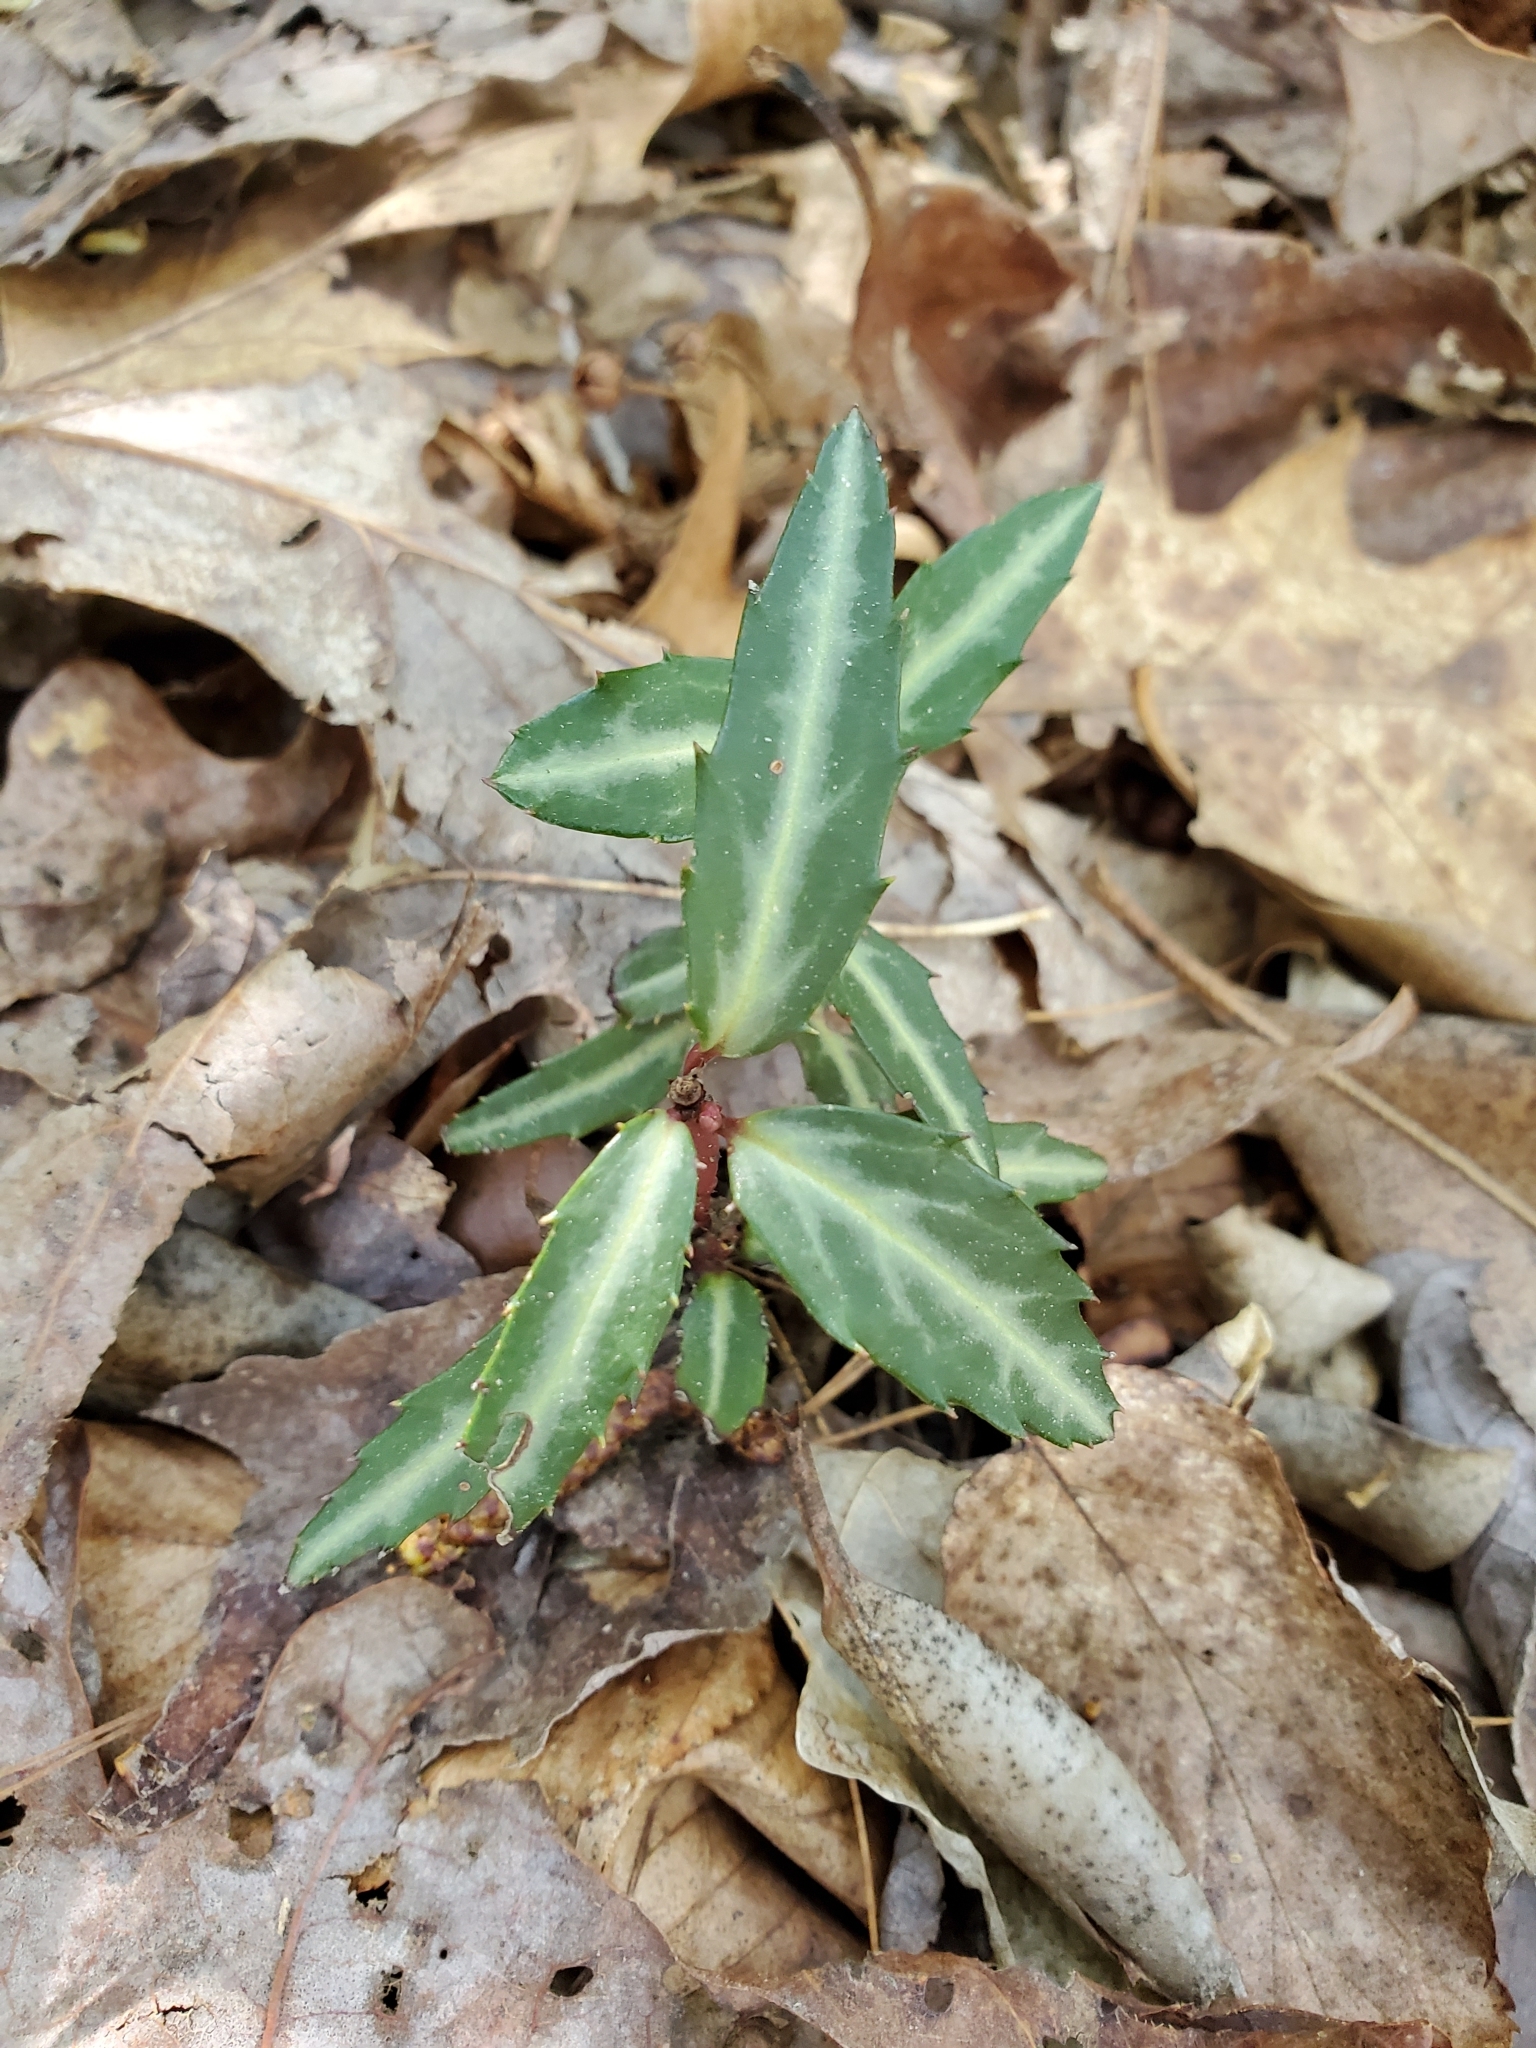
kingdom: Plantae
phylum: Tracheophyta
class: Magnoliopsida
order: Ericales
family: Ericaceae
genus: Chimaphila
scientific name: Chimaphila maculata
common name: Spotted pipsissewa
